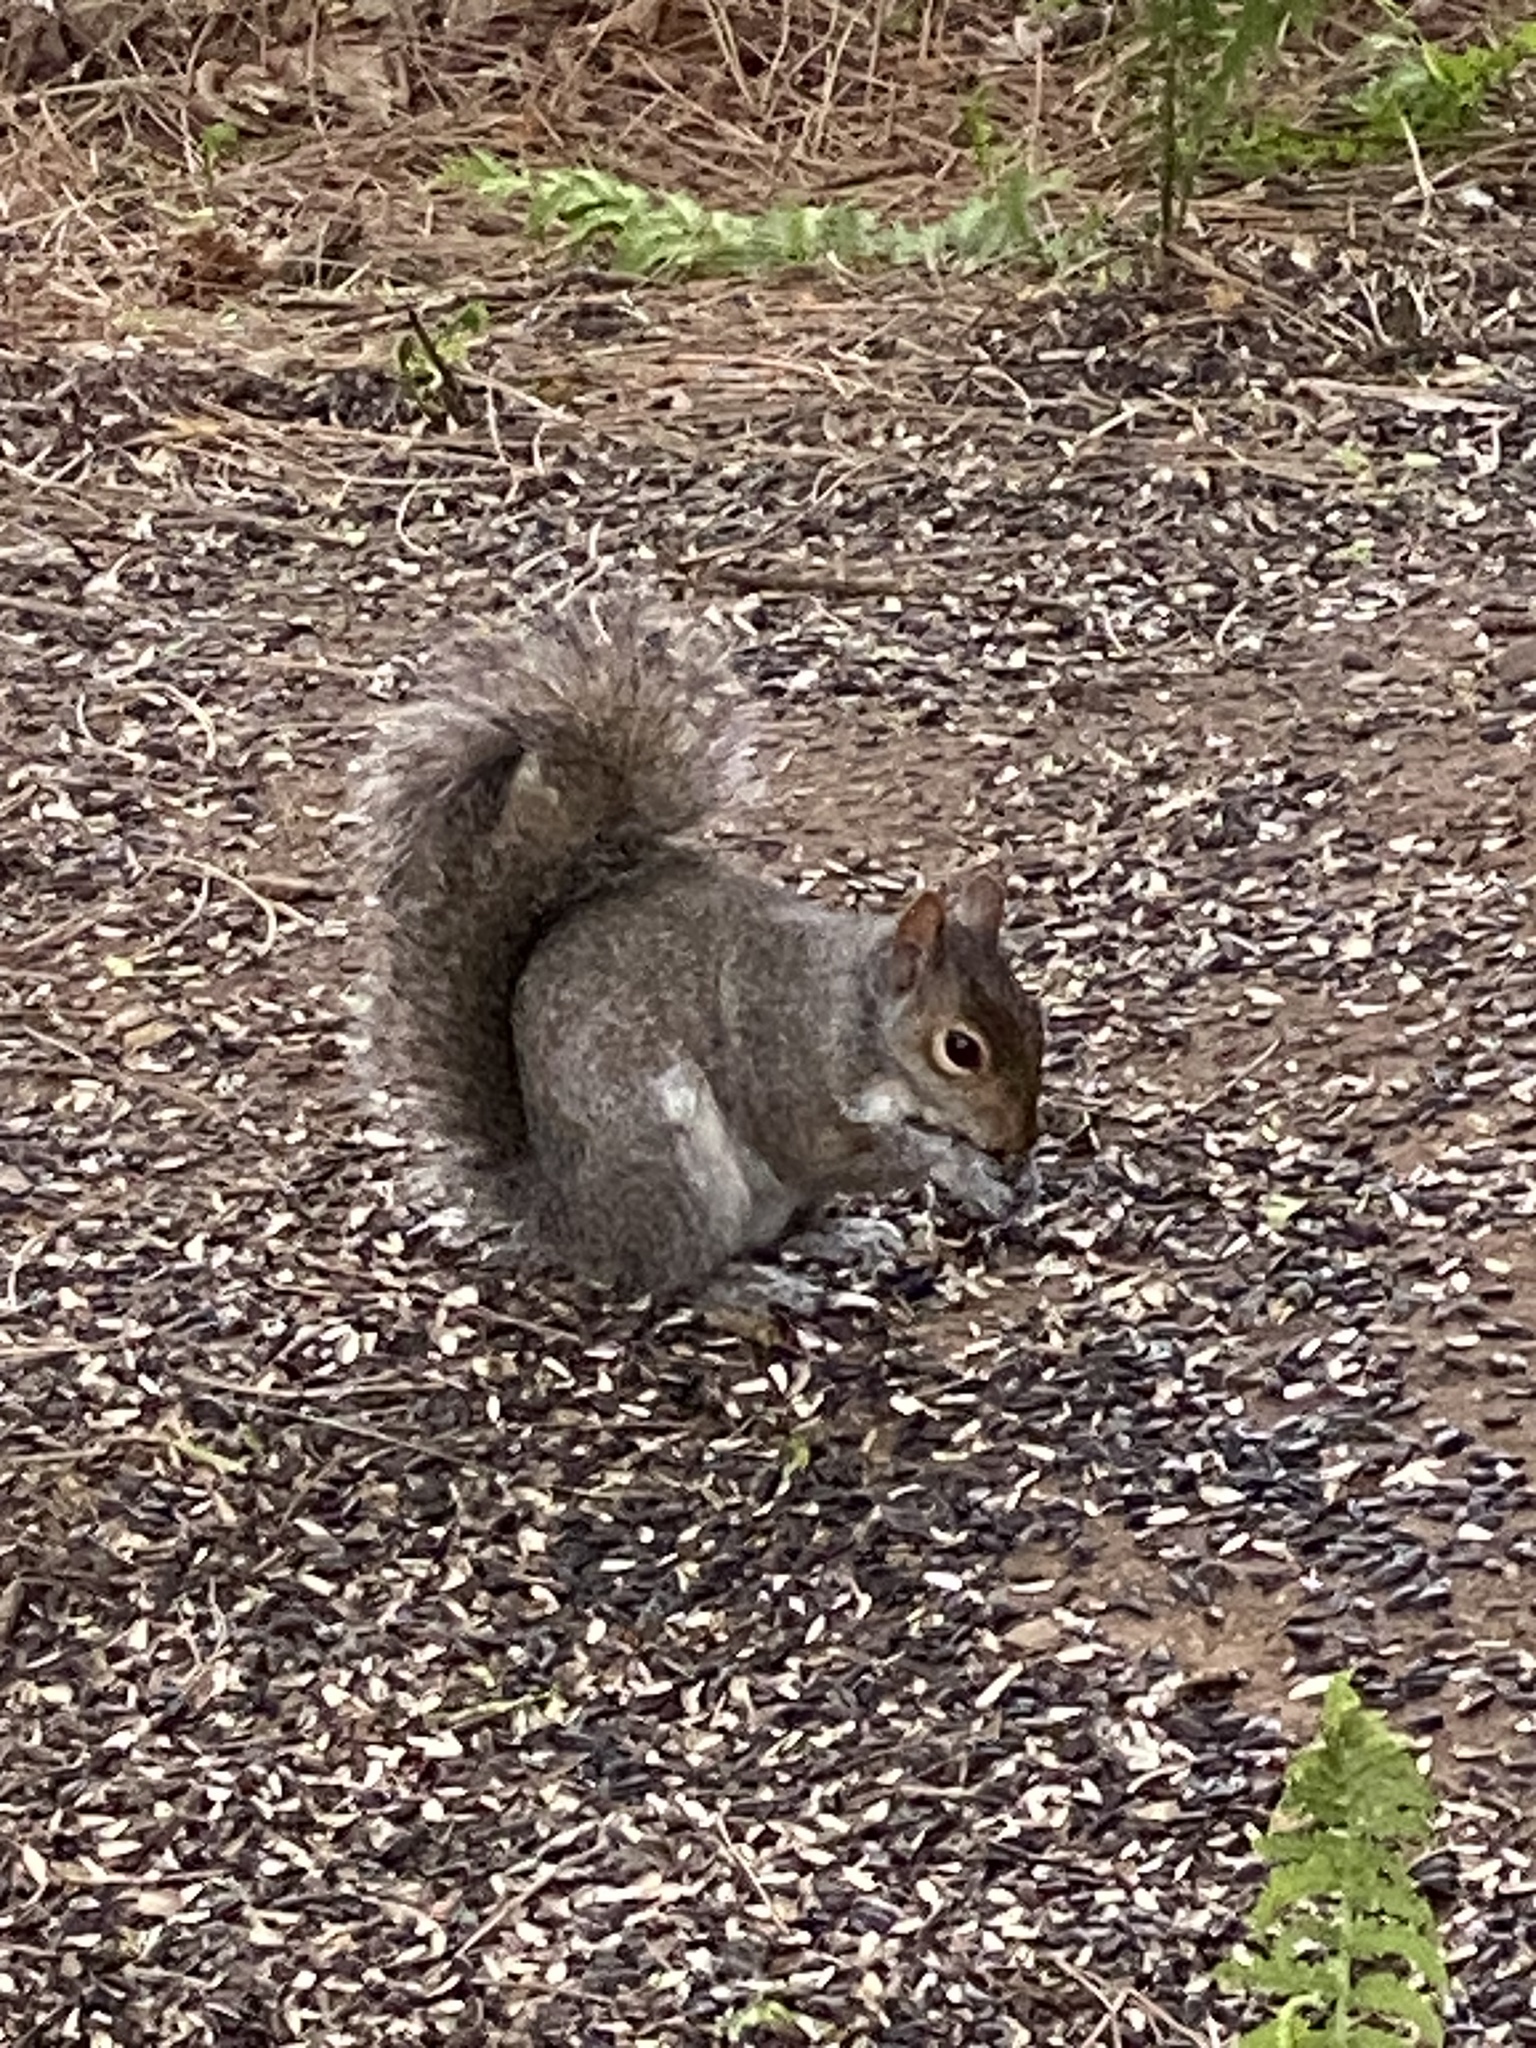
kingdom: Animalia
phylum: Chordata
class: Mammalia
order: Rodentia
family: Sciuridae
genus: Sciurus
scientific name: Sciurus carolinensis
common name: Eastern gray squirrel
